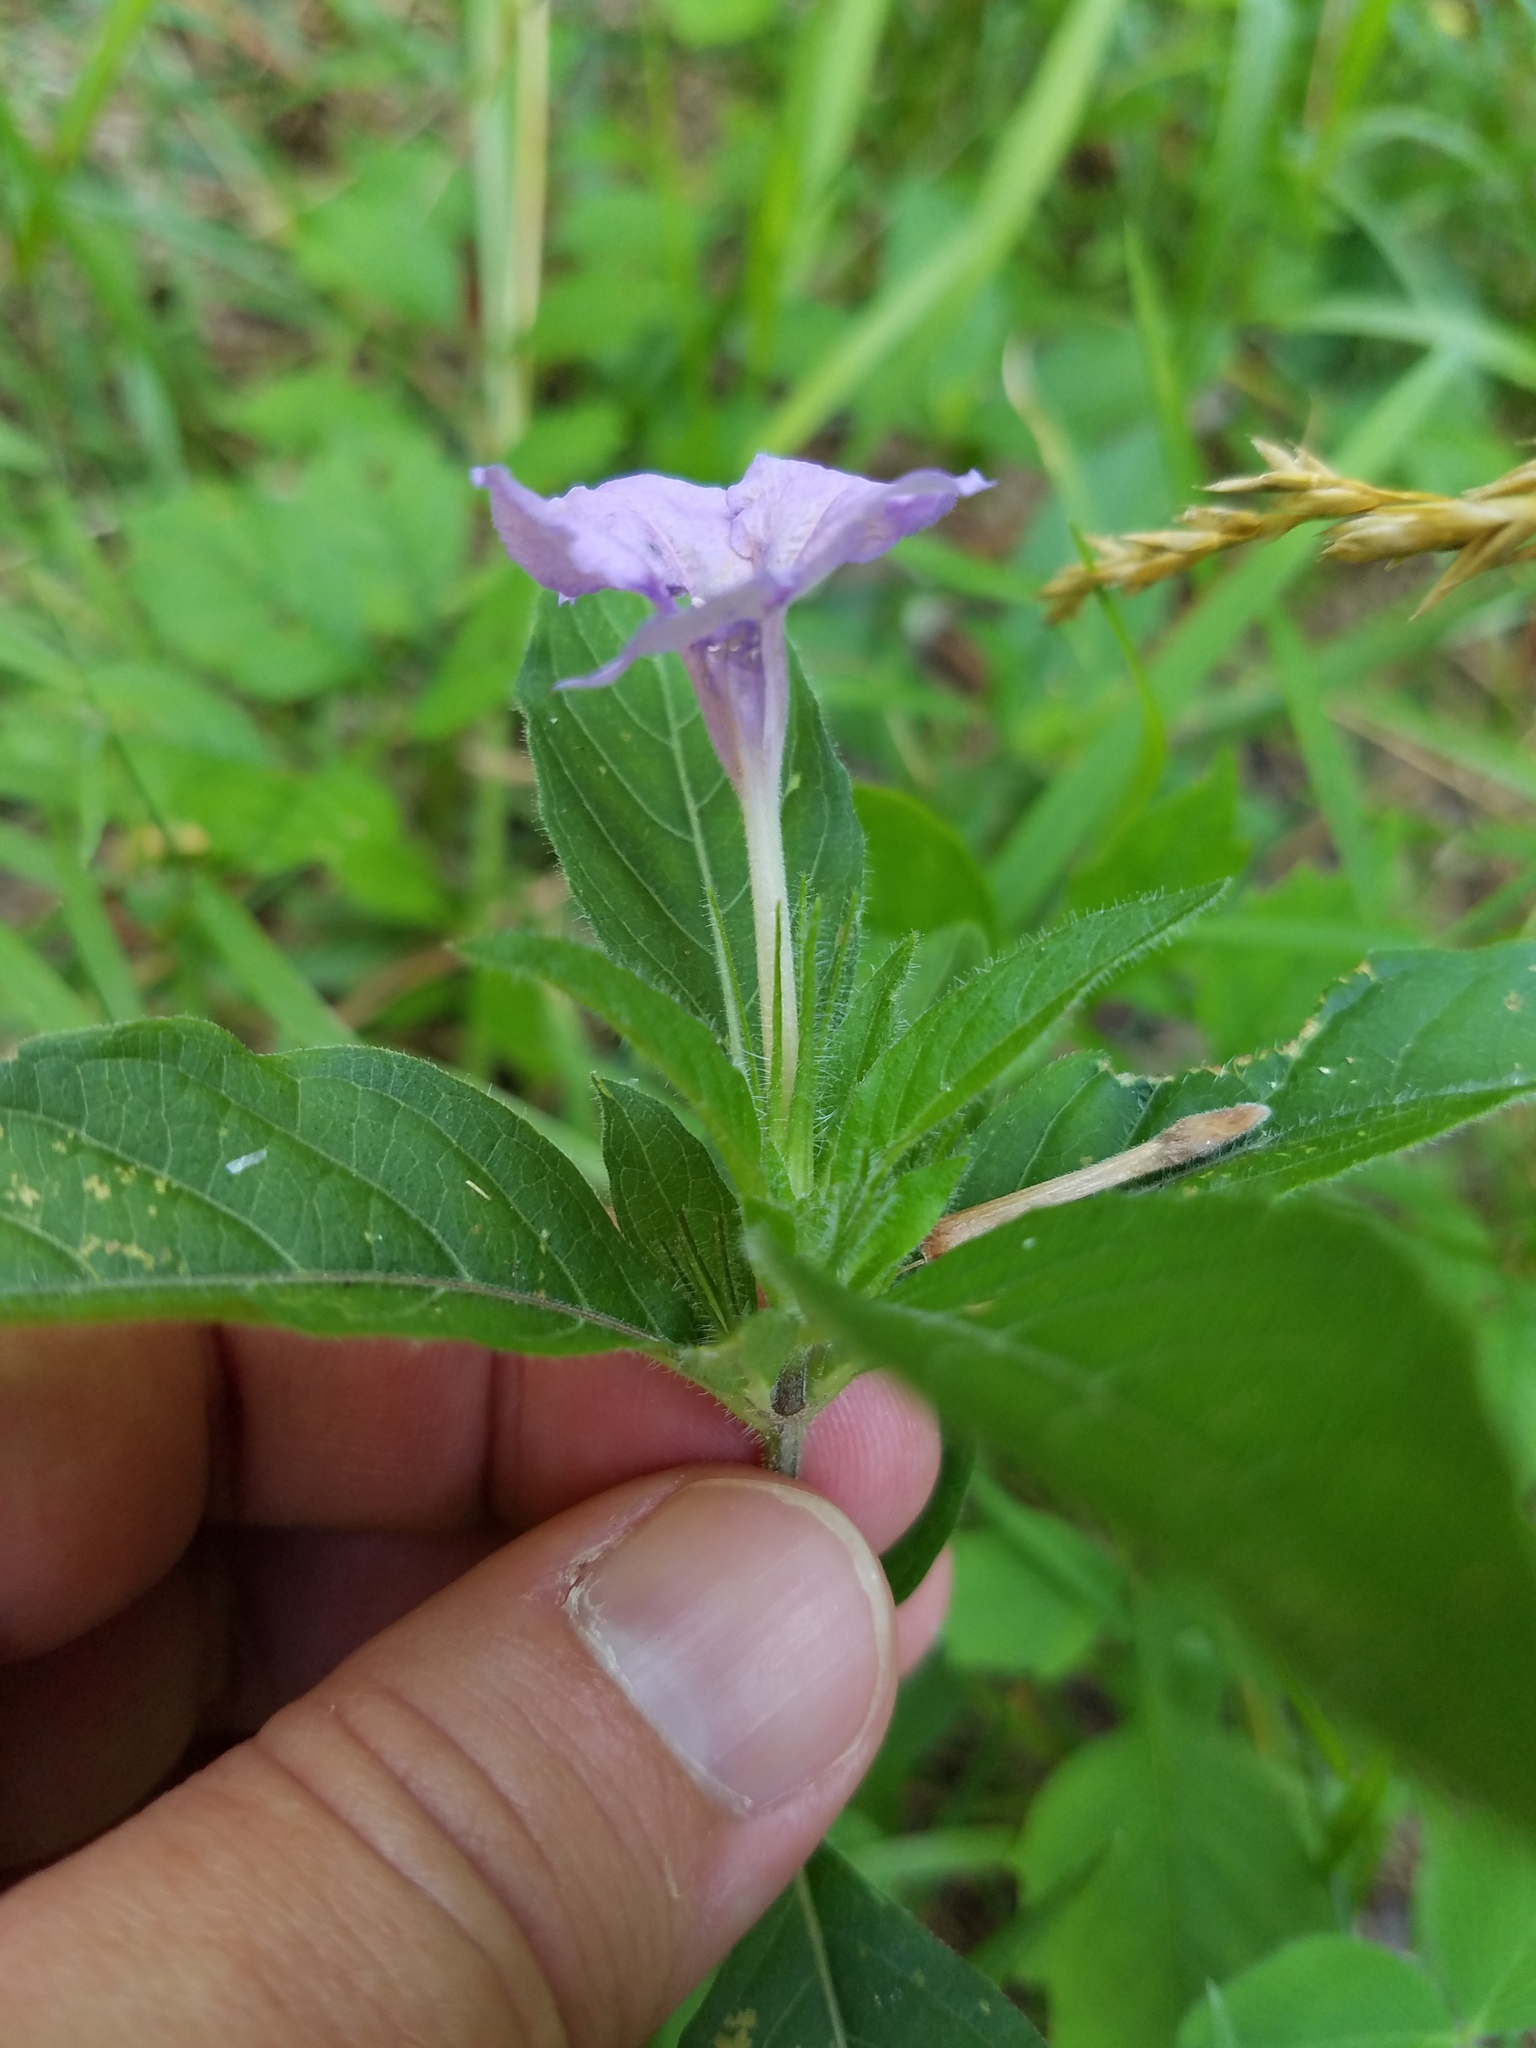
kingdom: Plantae
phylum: Tracheophyta
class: Magnoliopsida
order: Lamiales
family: Acanthaceae
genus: Ruellia
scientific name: Ruellia caroliniensis
